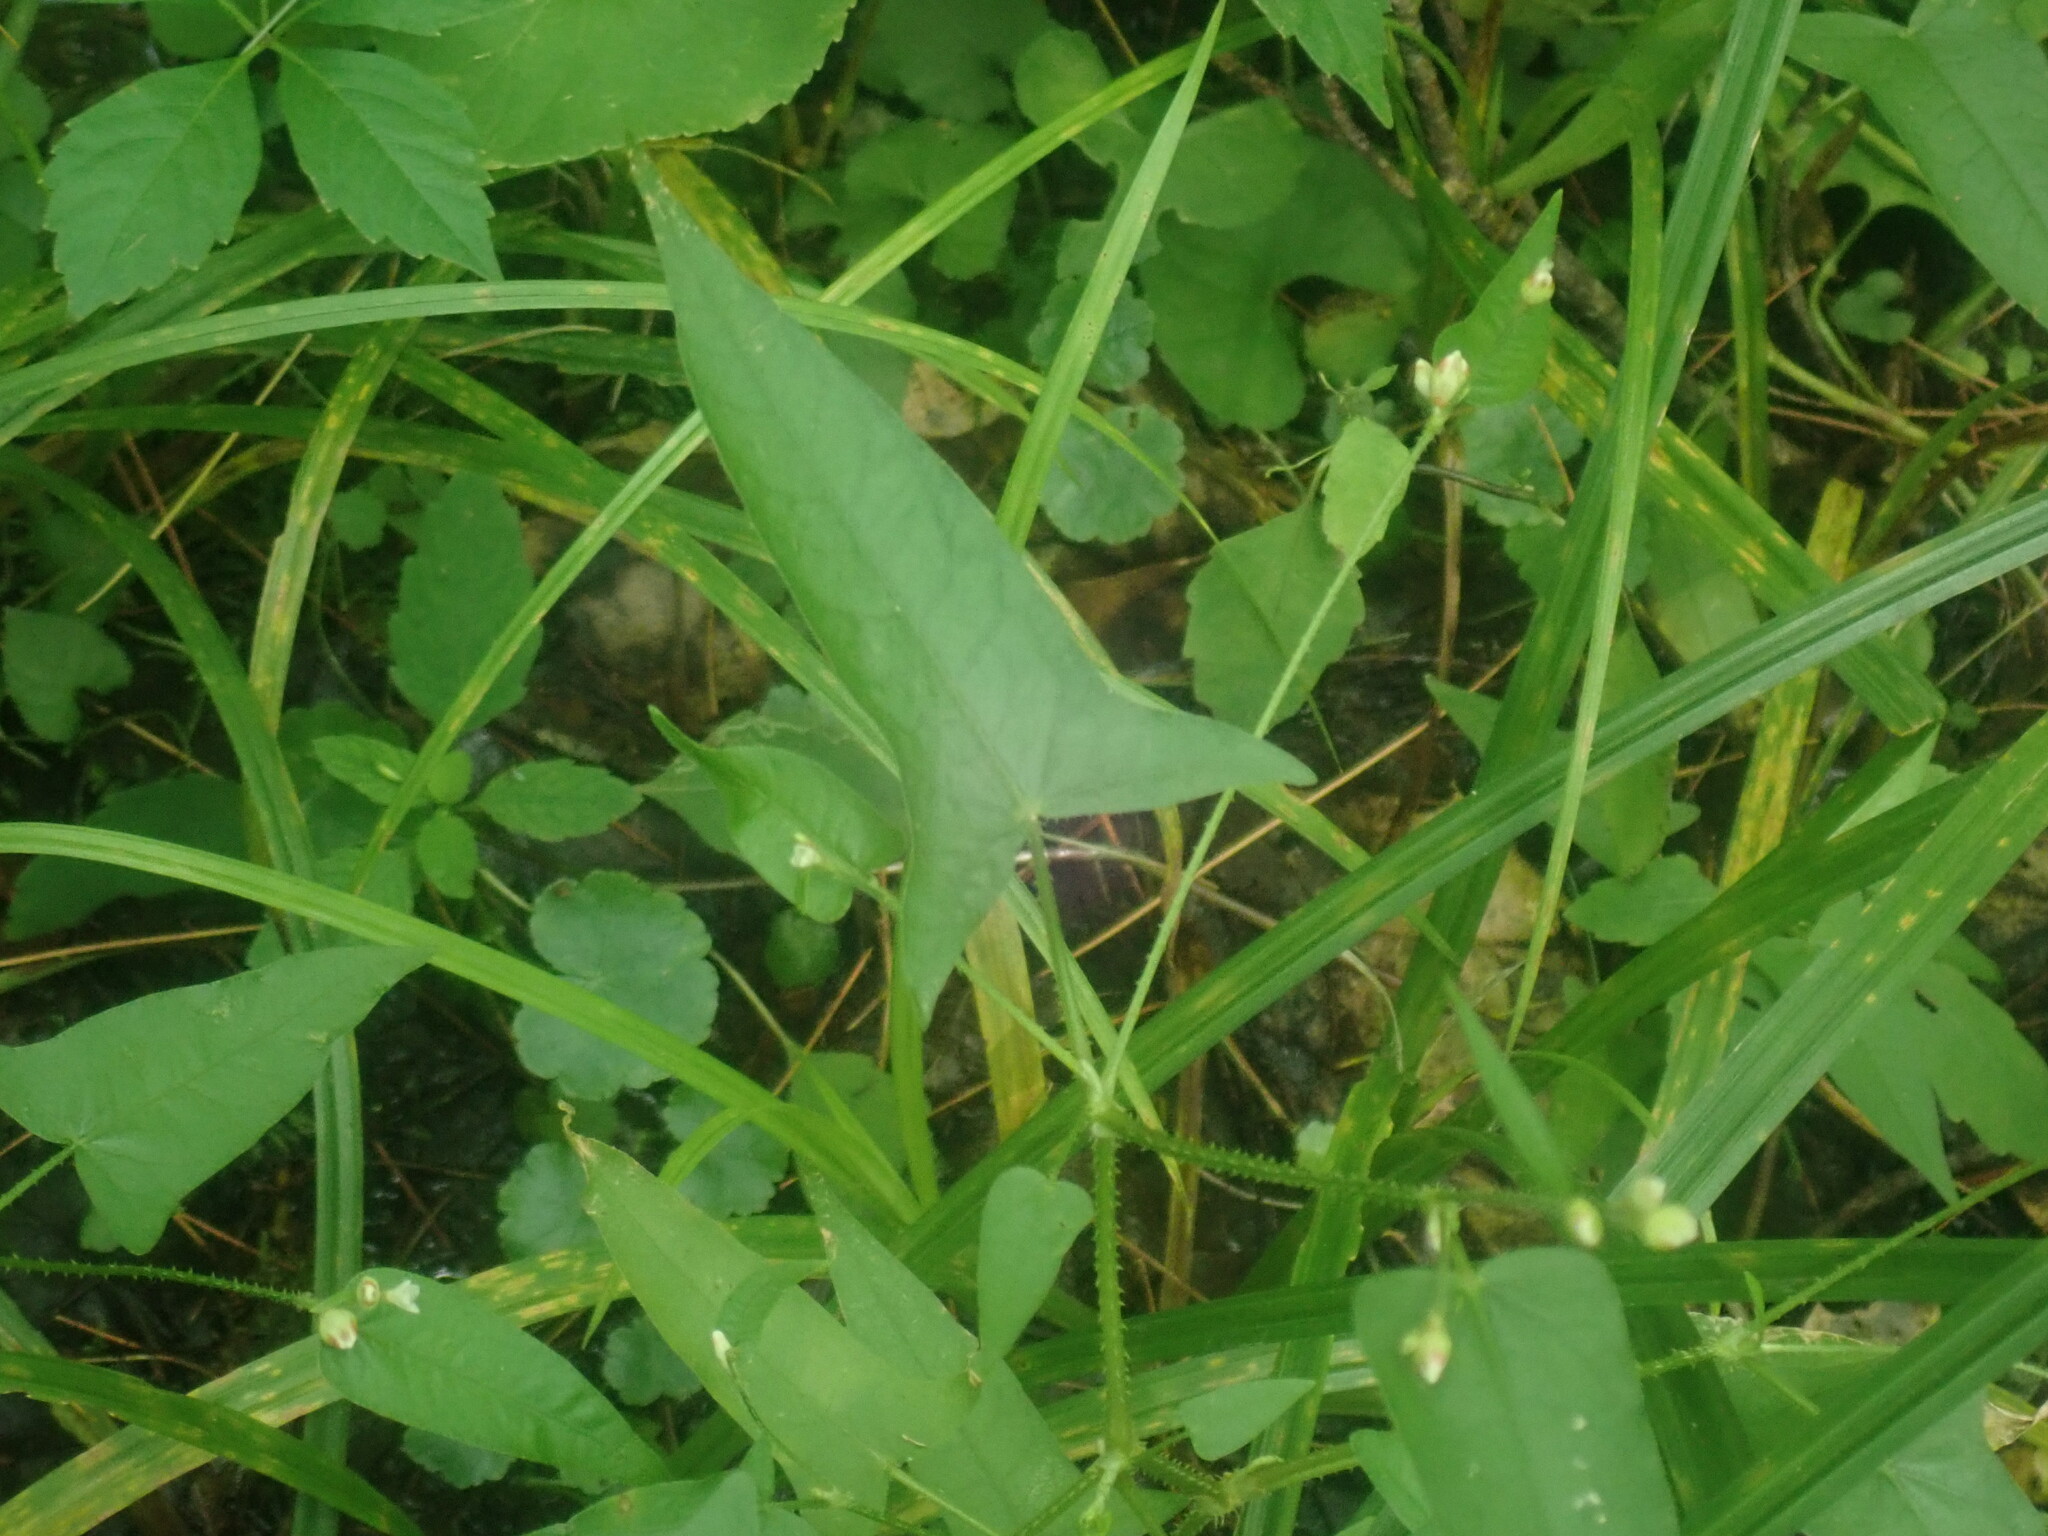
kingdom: Plantae
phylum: Tracheophyta
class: Magnoliopsida
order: Caryophyllales
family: Polygonaceae
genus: Persicaria
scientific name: Persicaria arifolia
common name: Halberd-leaved tear-thumb
